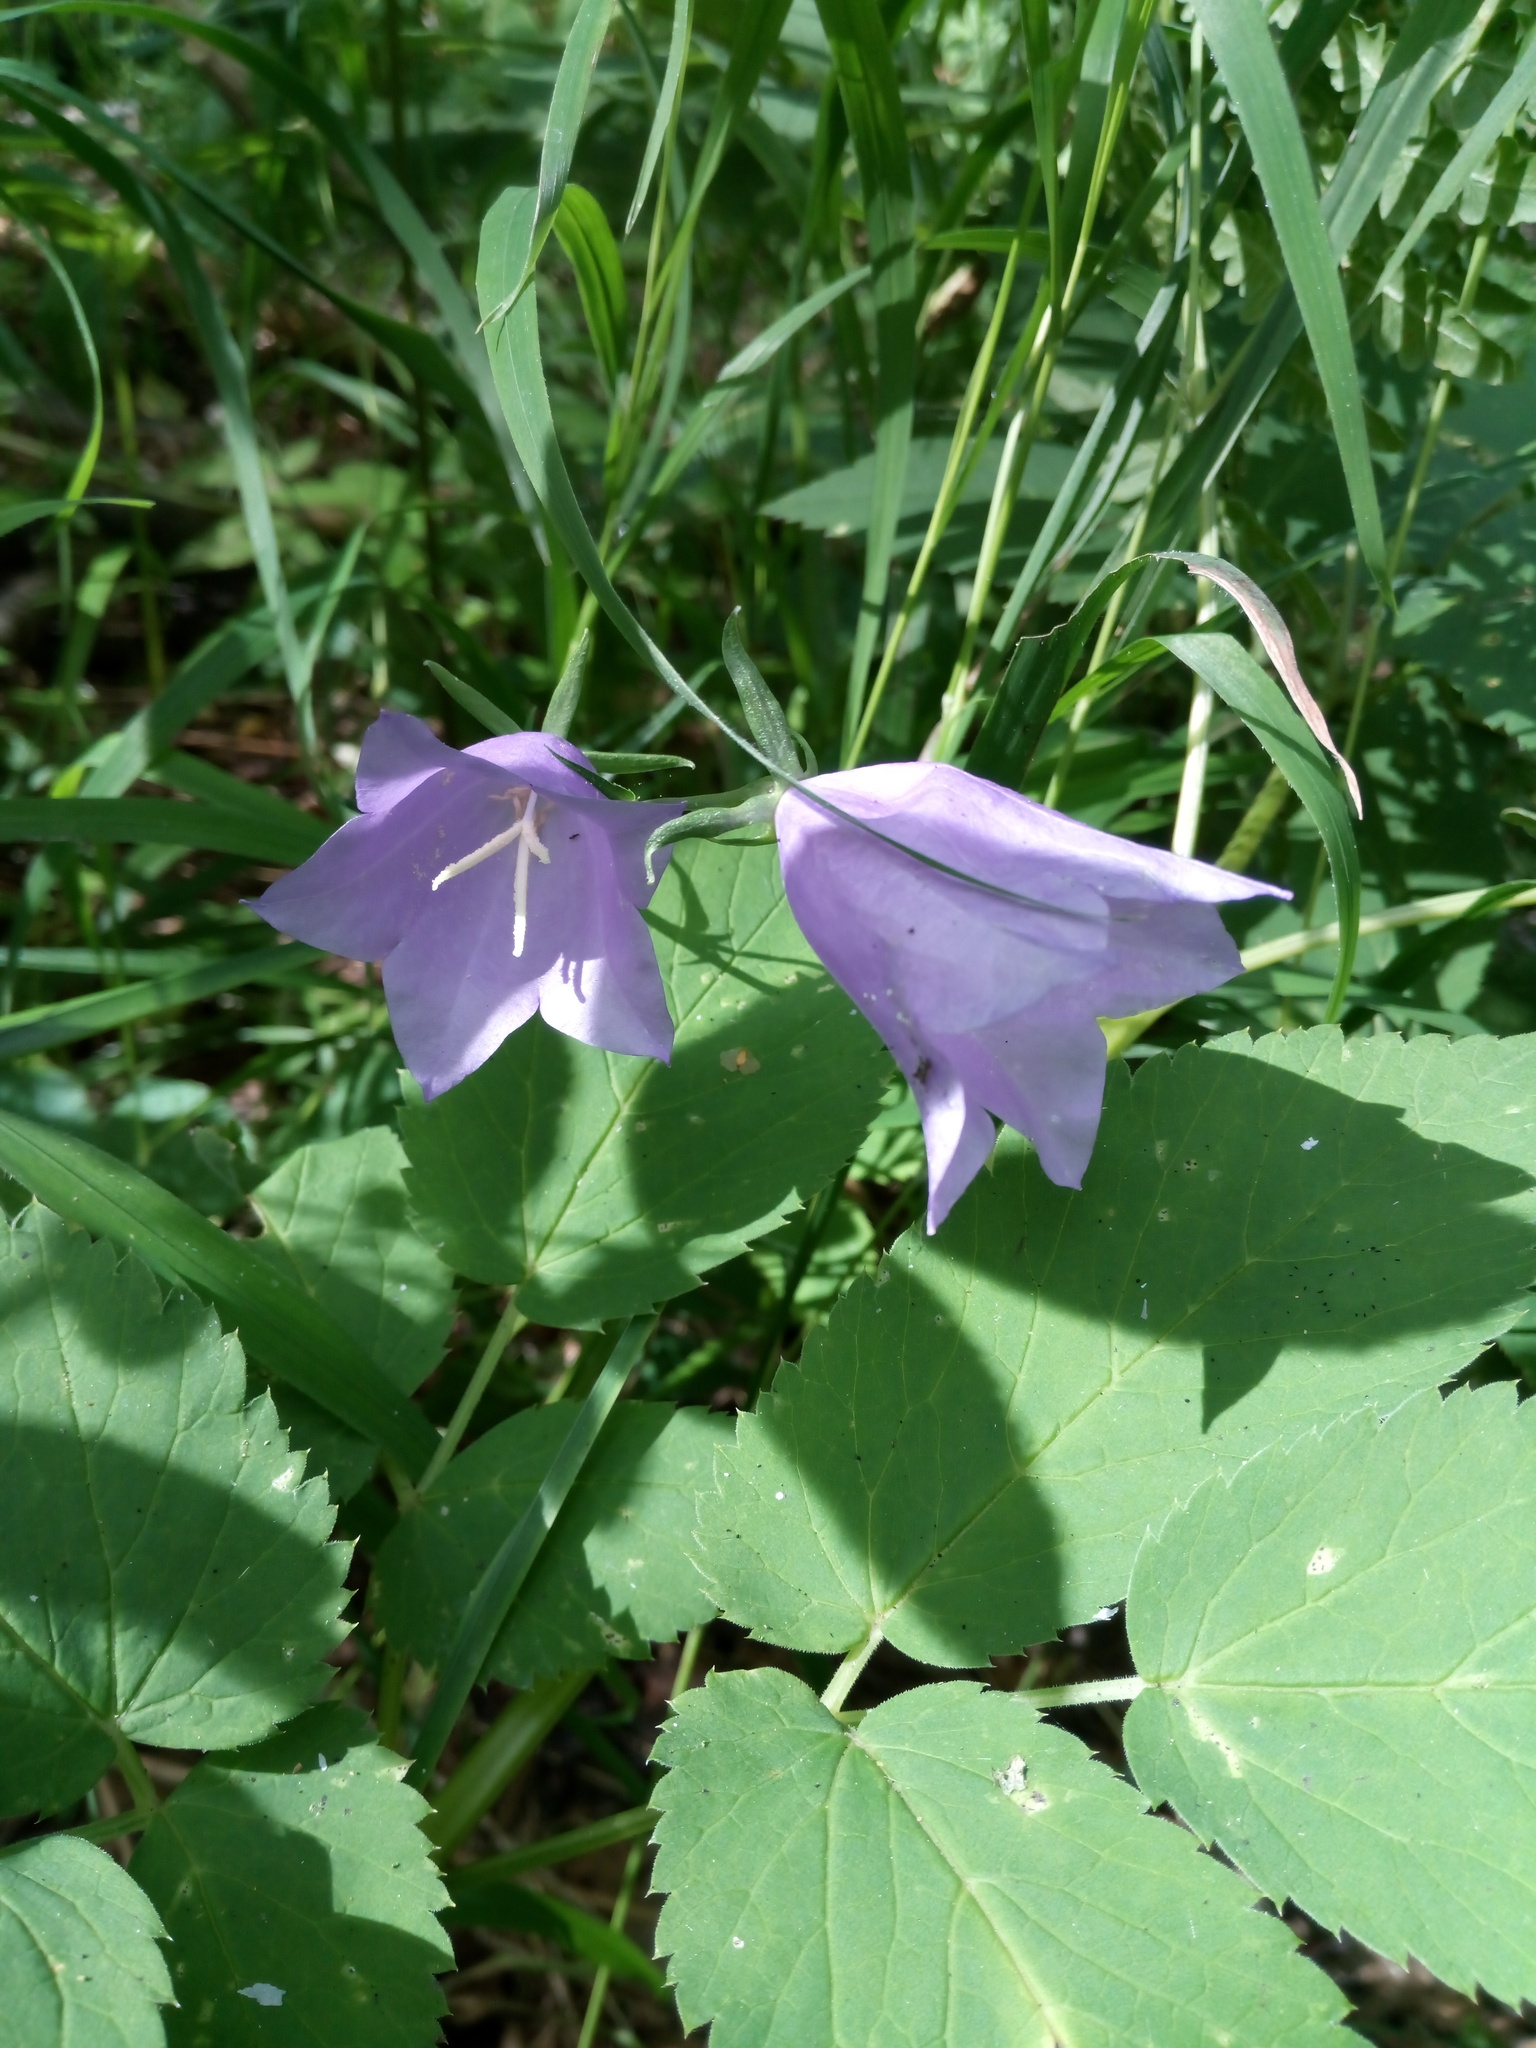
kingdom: Plantae
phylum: Tracheophyta
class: Magnoliopsida
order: Asterales
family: Campanulaceae
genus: Campanula
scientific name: Campanula persicifolia
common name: Peach-leaved bellflower
